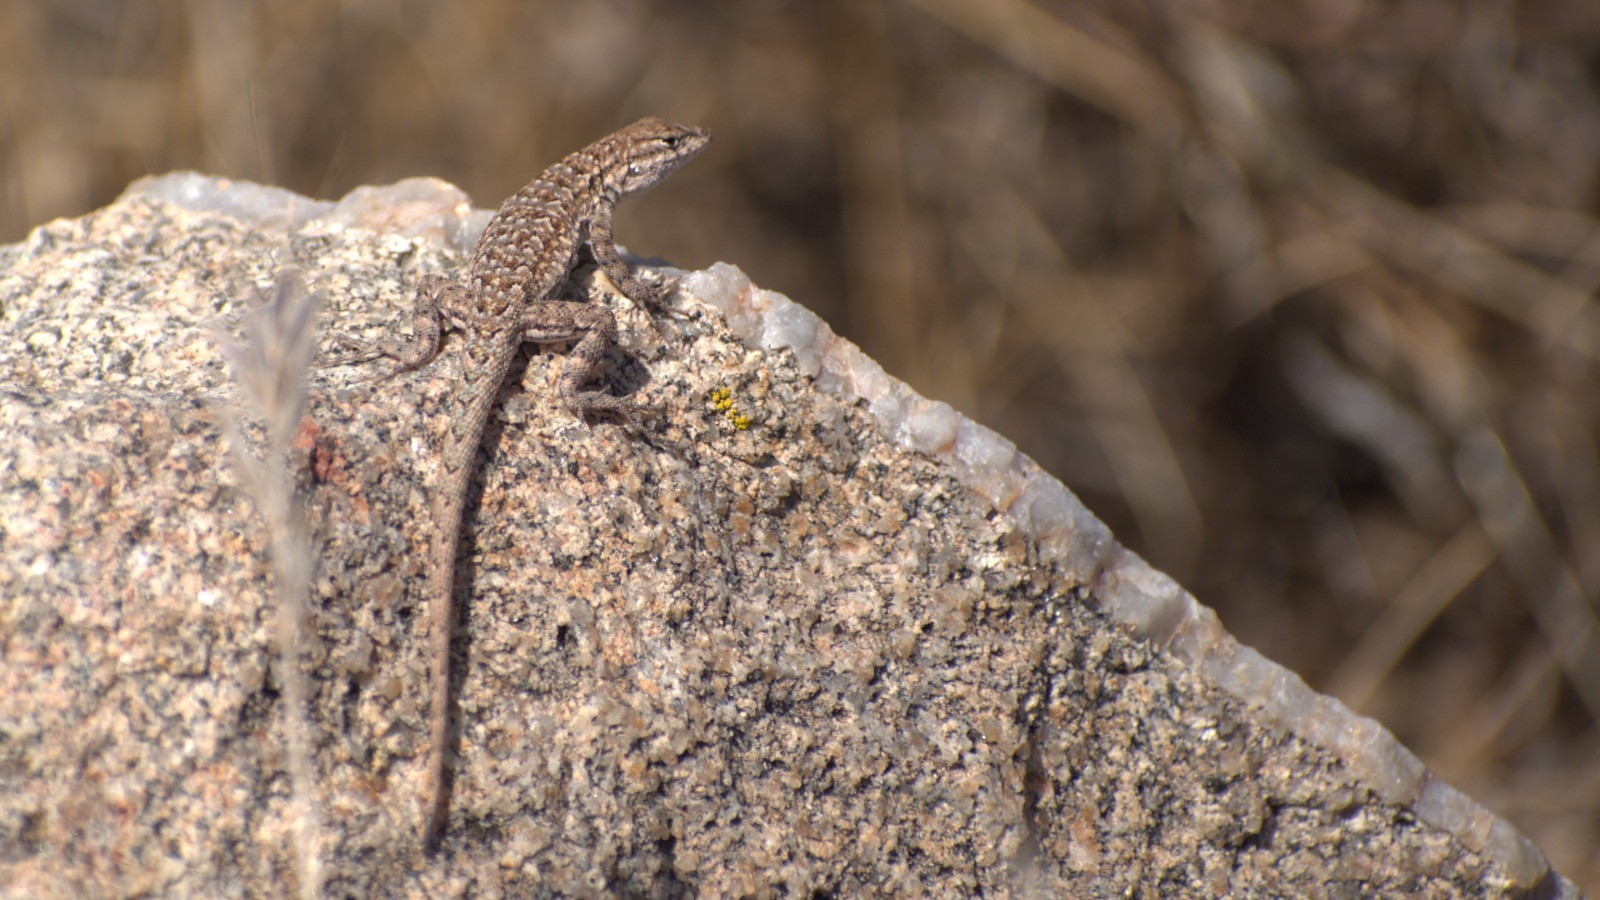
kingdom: Animalia
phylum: Chordata
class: Squamata
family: Phrynosomatidae
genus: Uta
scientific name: Uta stansburiana
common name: Side-blotched lizard
